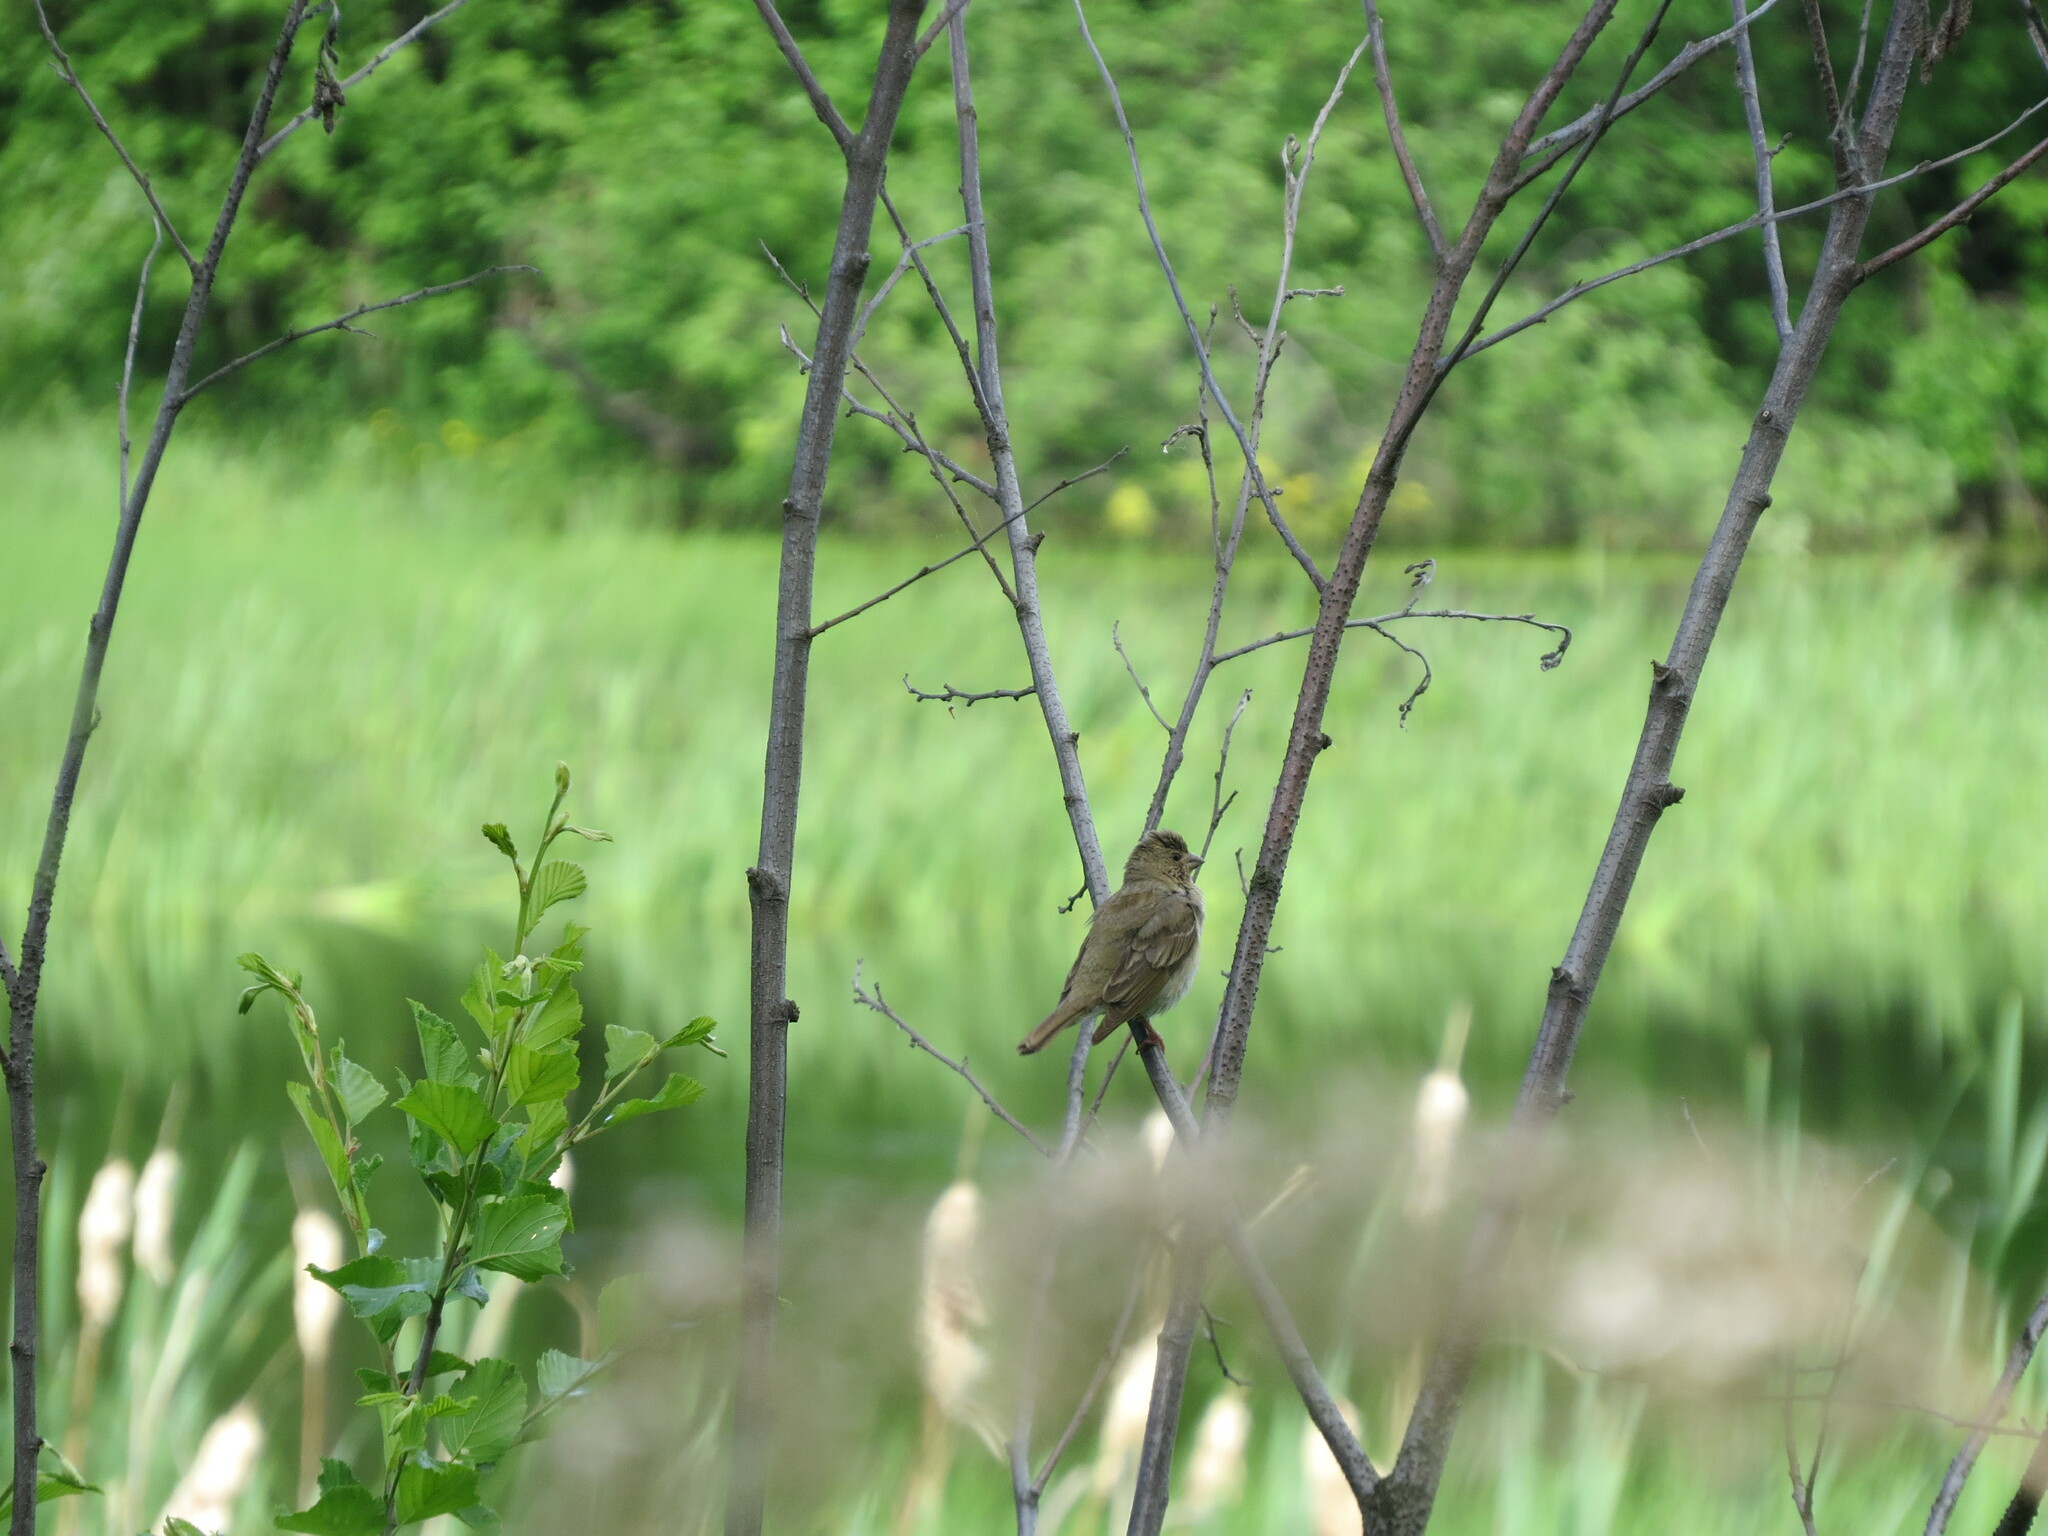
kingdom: Animalia
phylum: Chordata
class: Aves
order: Passeriformes
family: Fringillidae
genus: Carpodacus
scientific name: Carpodacus erythrinus
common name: Common rosefinch
